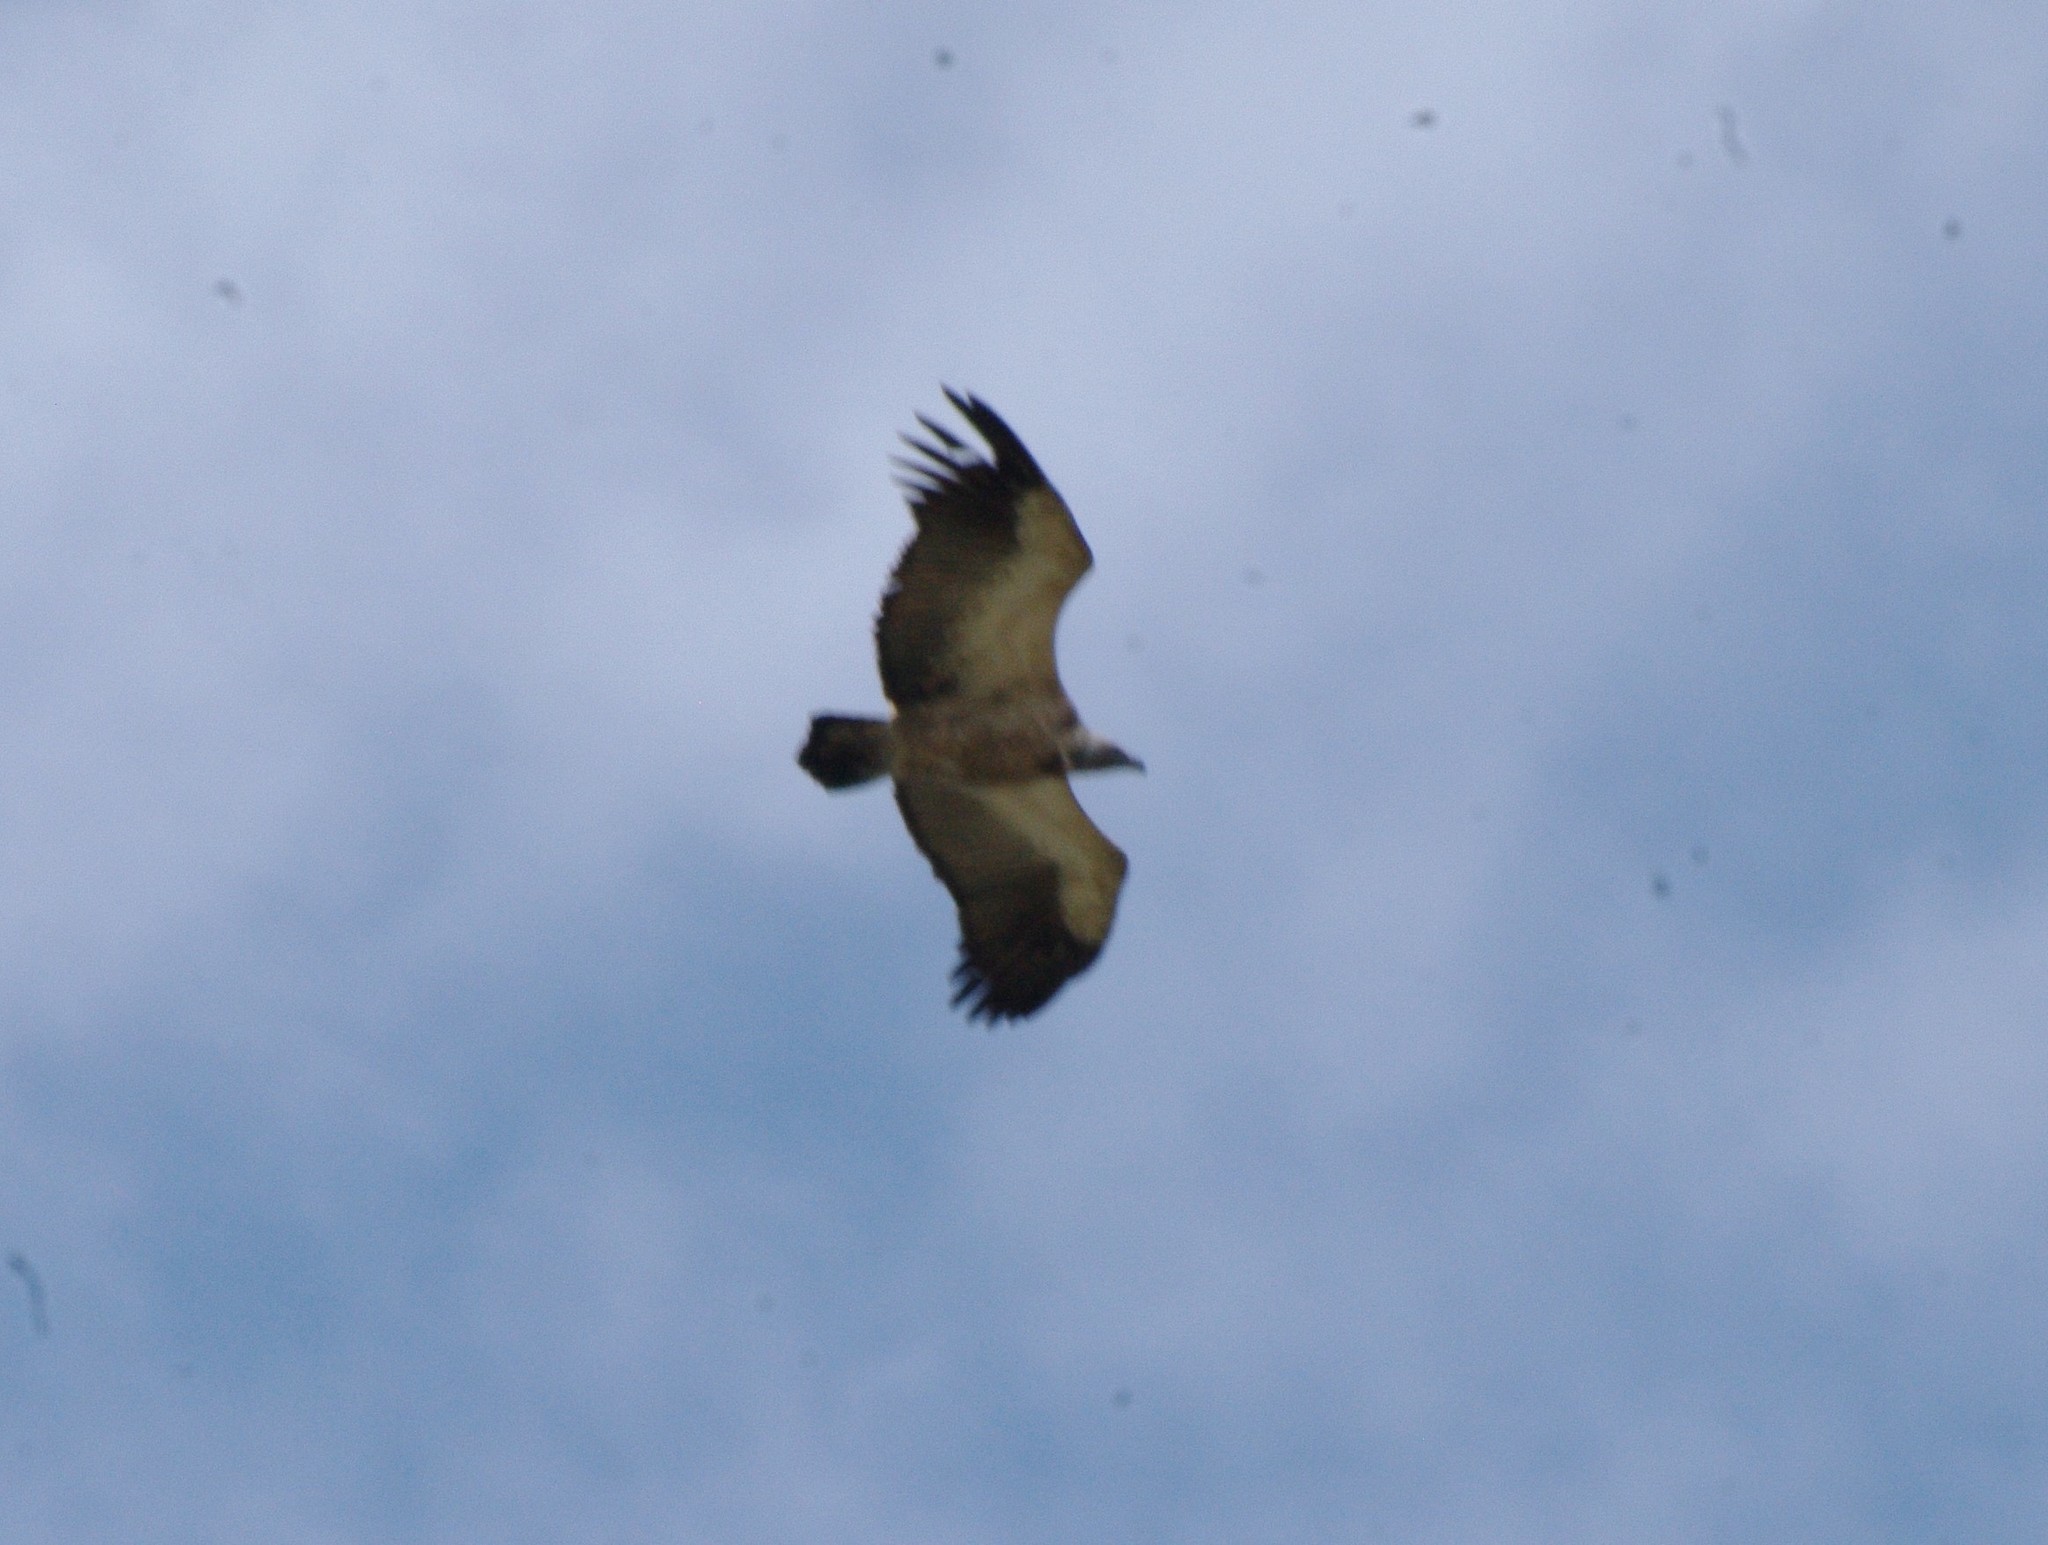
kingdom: Animalia
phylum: Chordata
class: Aves
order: Accipitriformes
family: Accipitridae
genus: Gyps
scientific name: Gyps coprotheres
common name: Cape vulture
